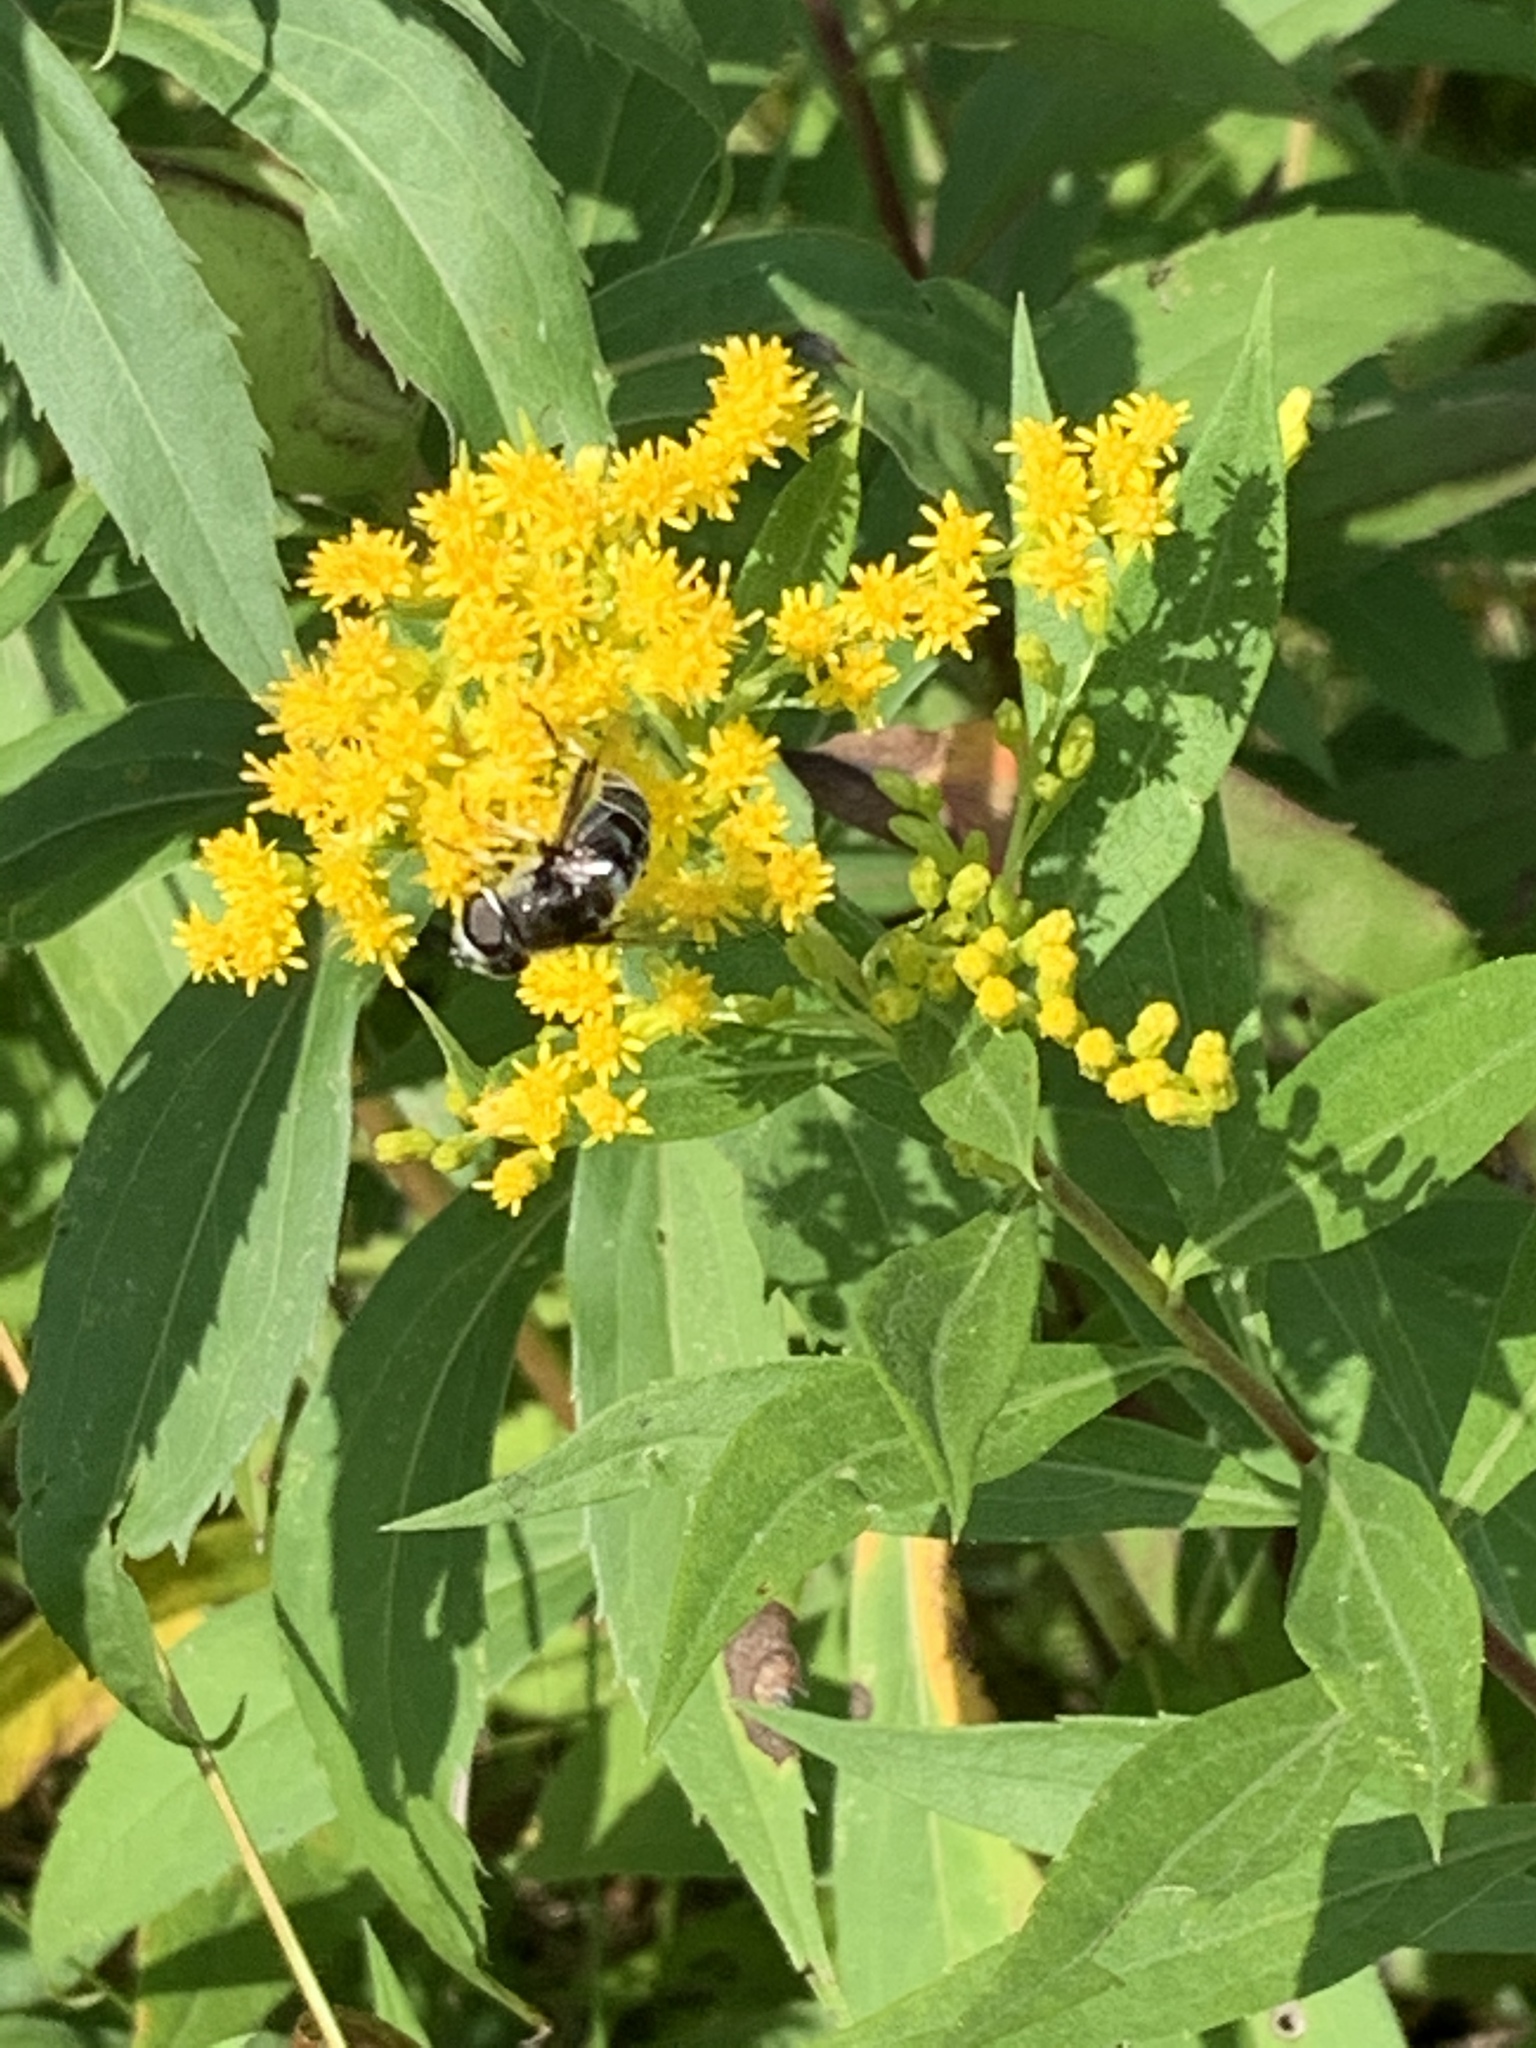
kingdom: Animalia
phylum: Arthropoda
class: Insecta
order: Diptera
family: Syrphidae
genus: Eristalis
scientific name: Eristalis dimidiata
